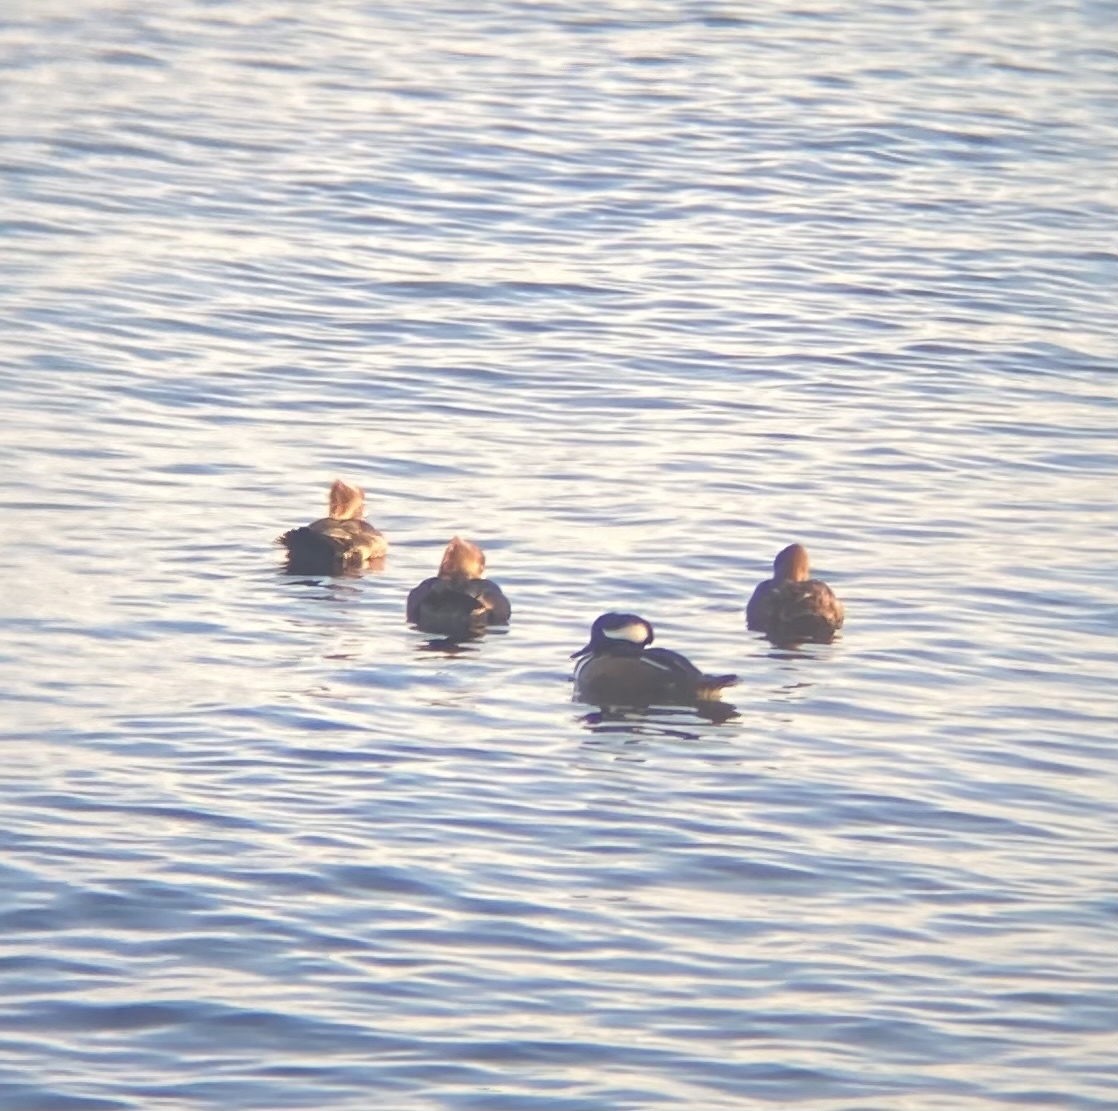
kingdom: Animalia
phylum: Chordata
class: Aves
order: Anseriformes
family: Anatidae
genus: Lophodytes
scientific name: Lophodytes cucullatus
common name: Hooded merganser
